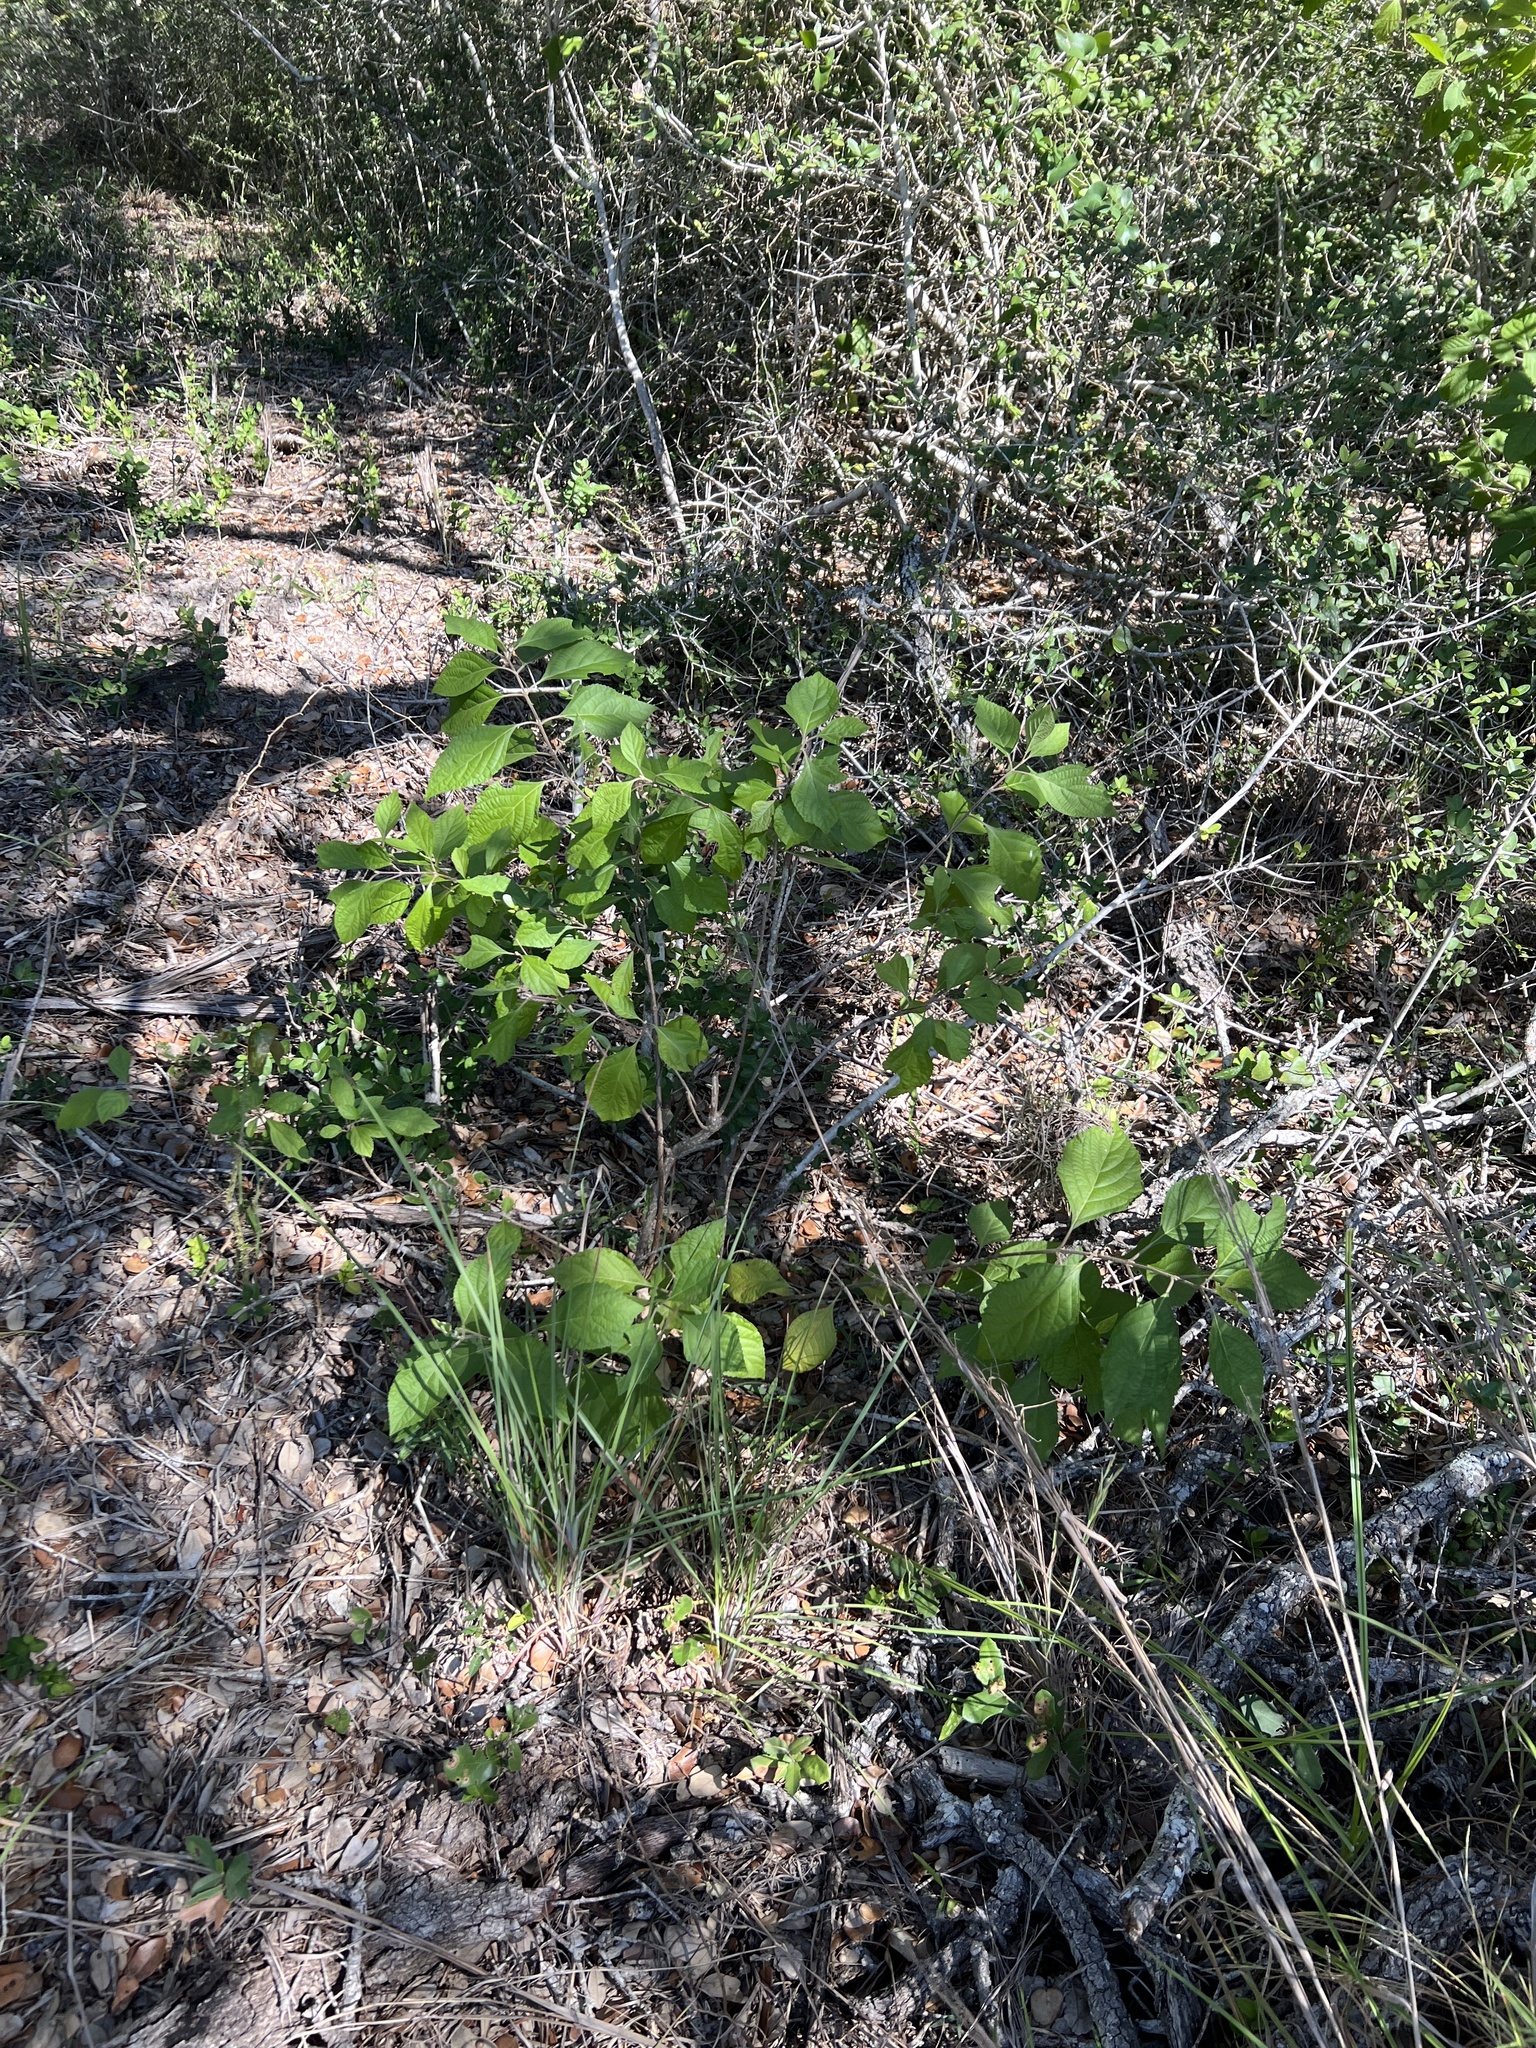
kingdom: Plantae
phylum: Tracheophyta
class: Magnoliopsida
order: Lamiales
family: Lamiaceae
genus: Callicarpa
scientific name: Callicarpa americana
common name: American beautyberry
